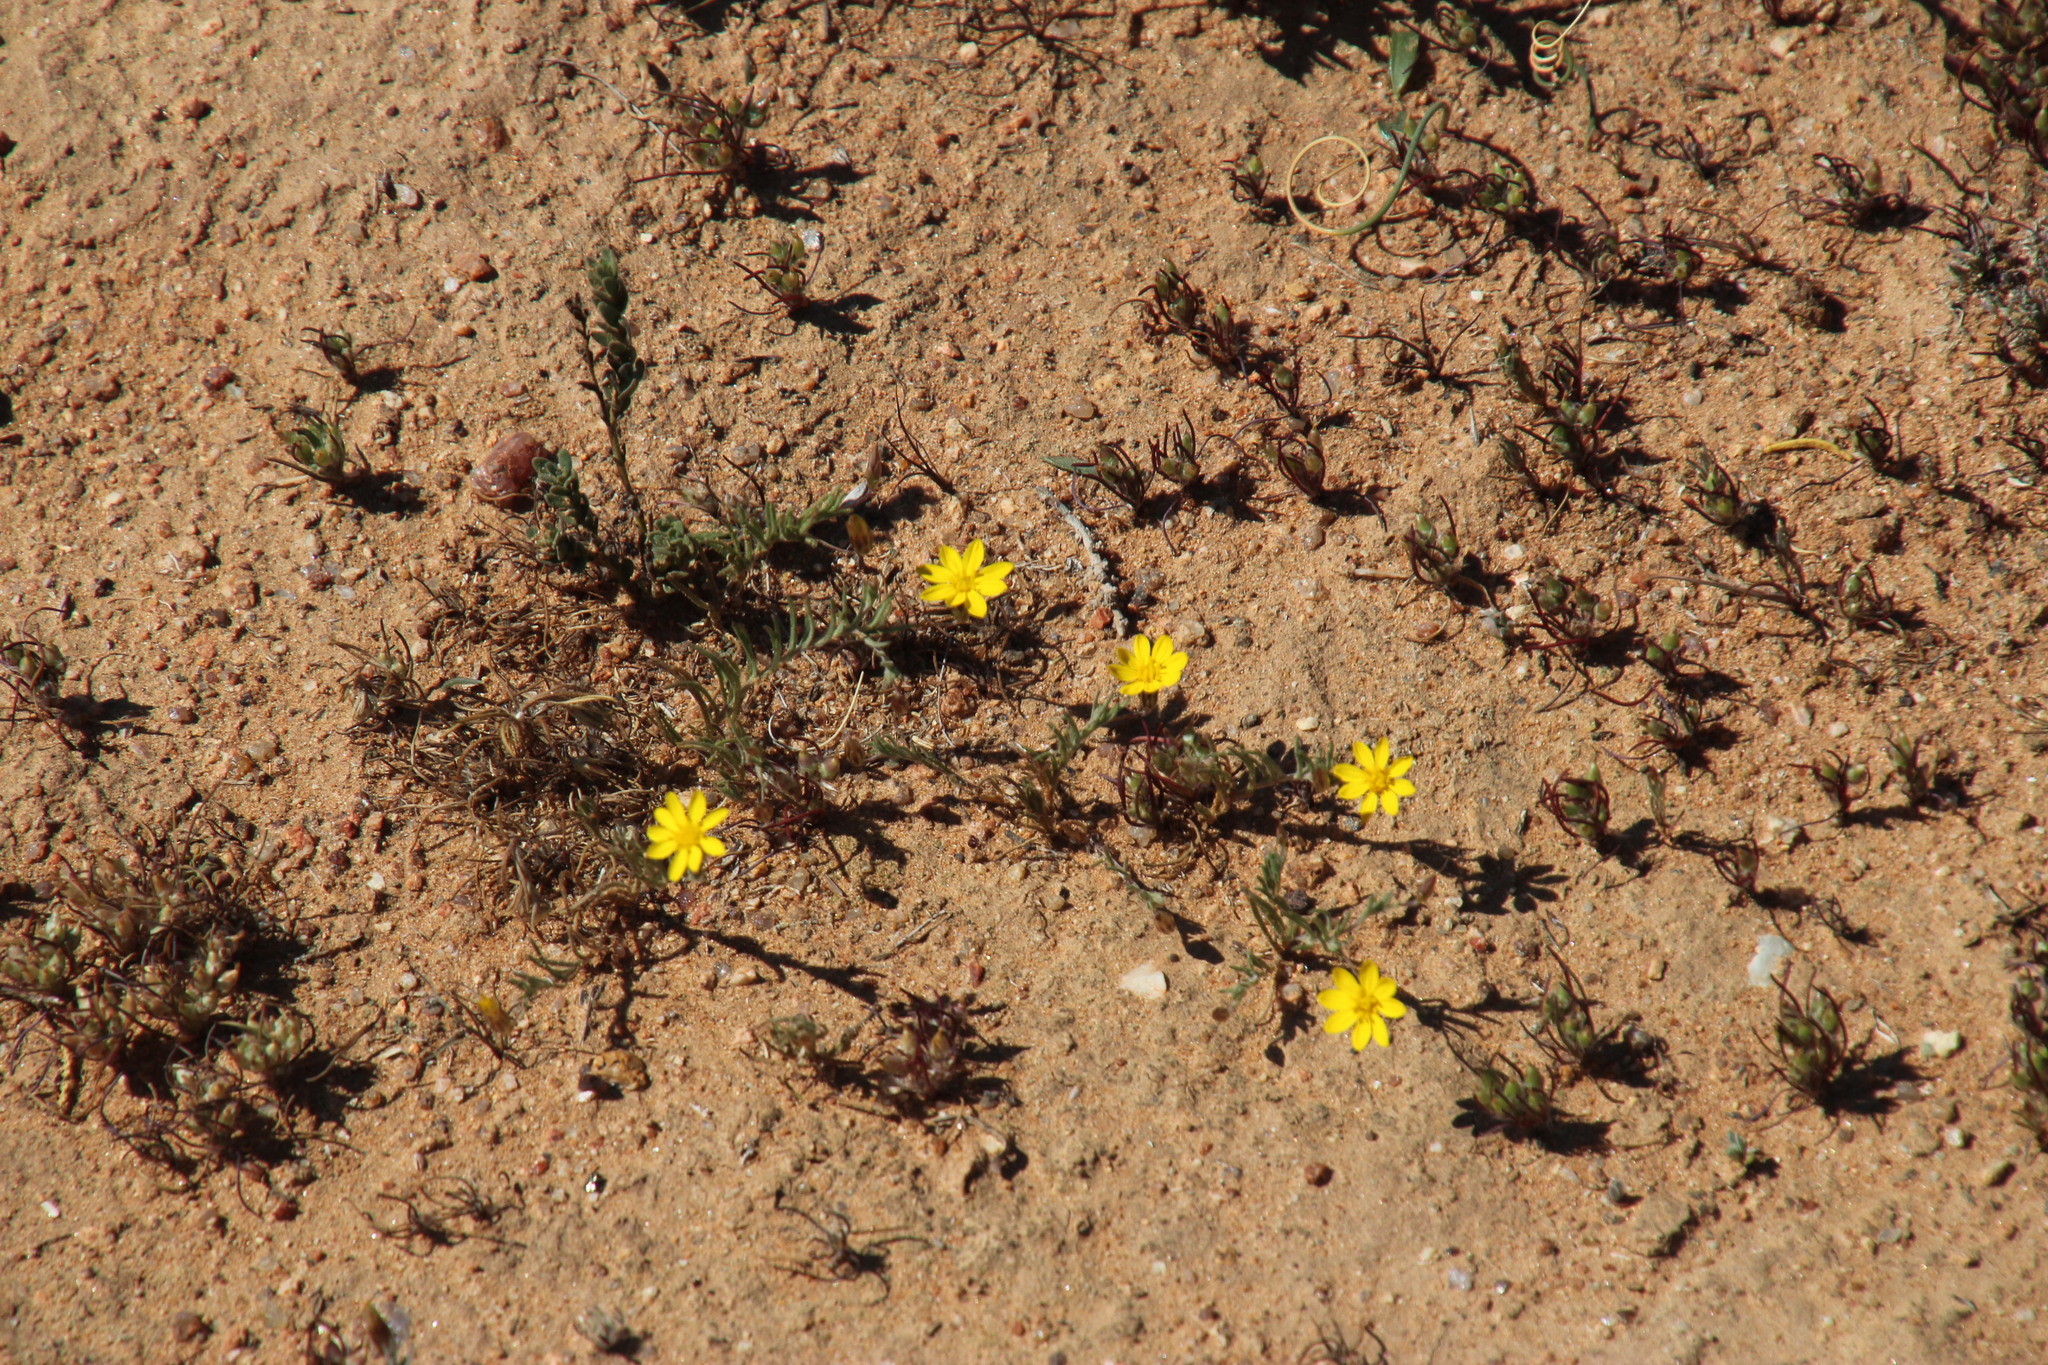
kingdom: Plantae
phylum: Tracheophyta
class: Magnoliopsida
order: Asterales
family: Asteraceae
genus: Rhynchopsidium
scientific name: Rhynchopsidium pumilum
